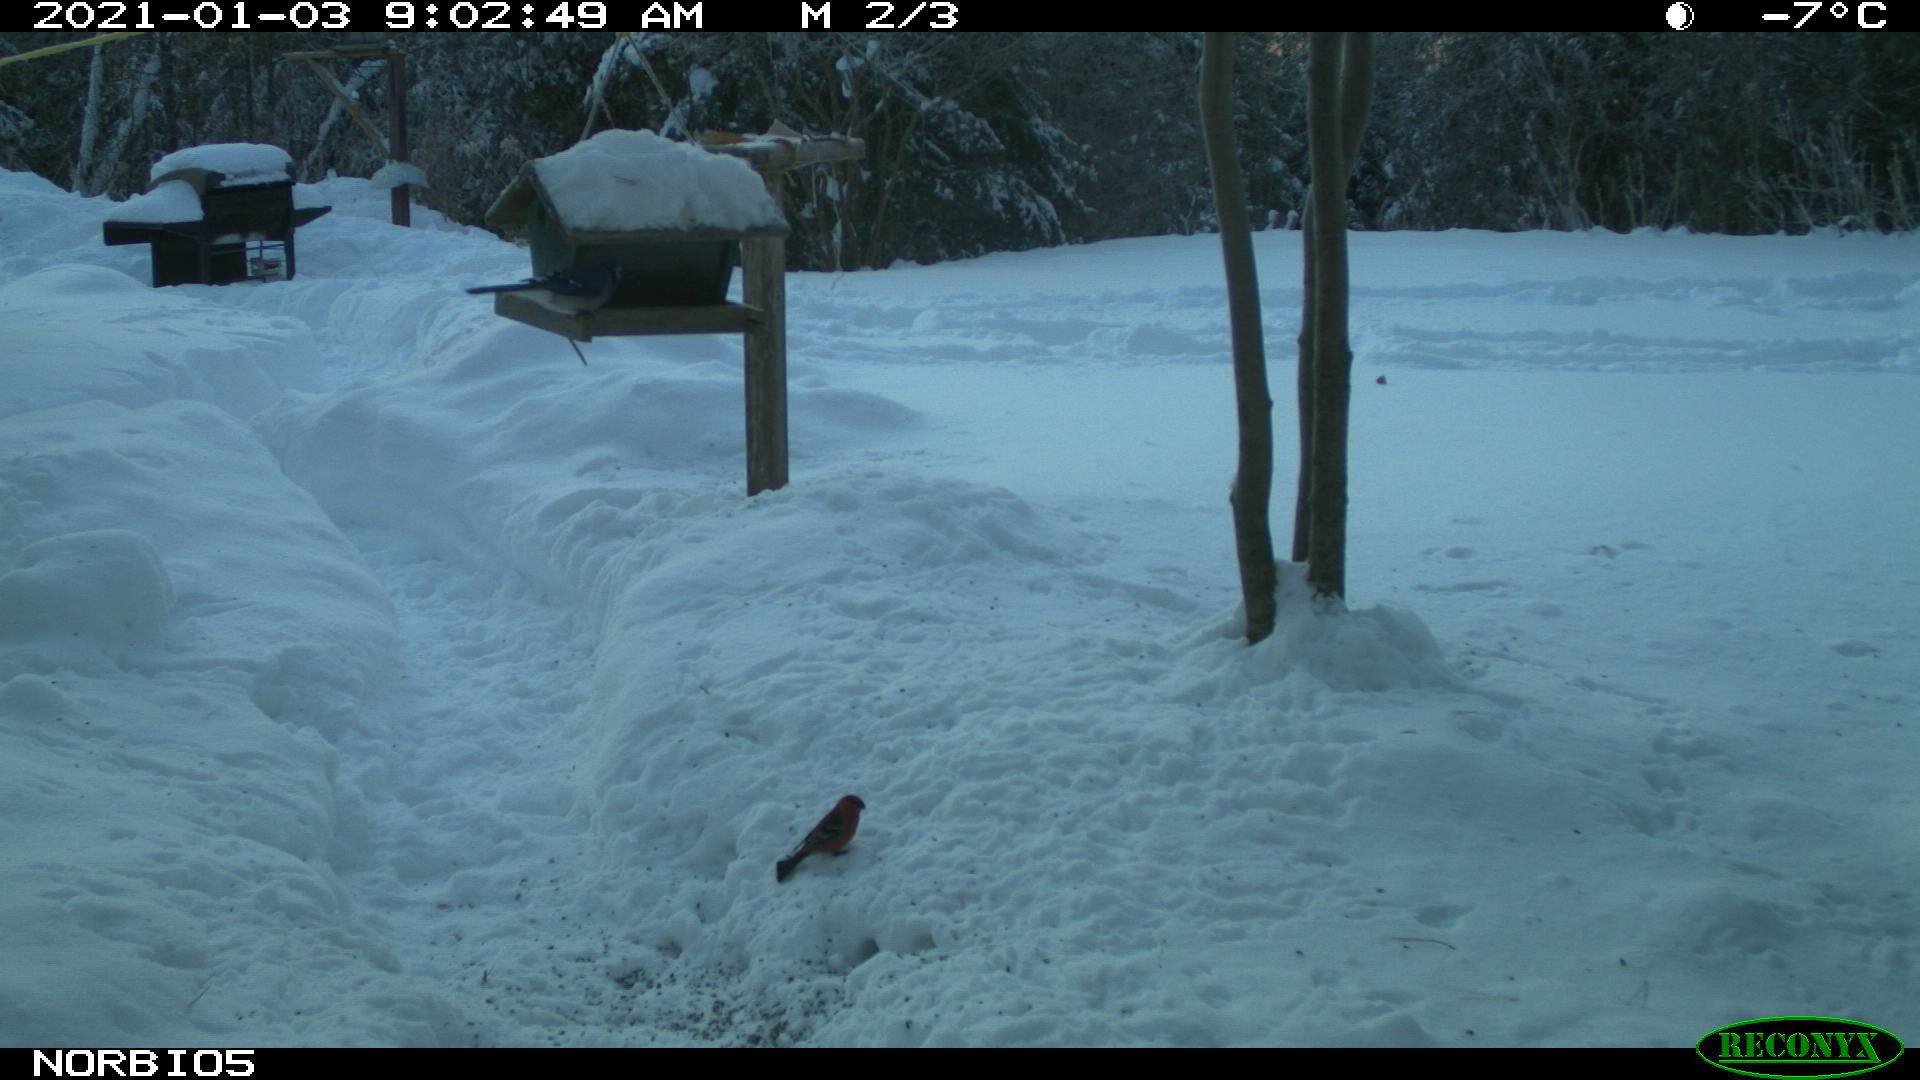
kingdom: Animalia
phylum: Chordata
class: Aves
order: Passeriformes
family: Corvidae
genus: Cyanocitta
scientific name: Cyanocitta cristata
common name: Blue jay
